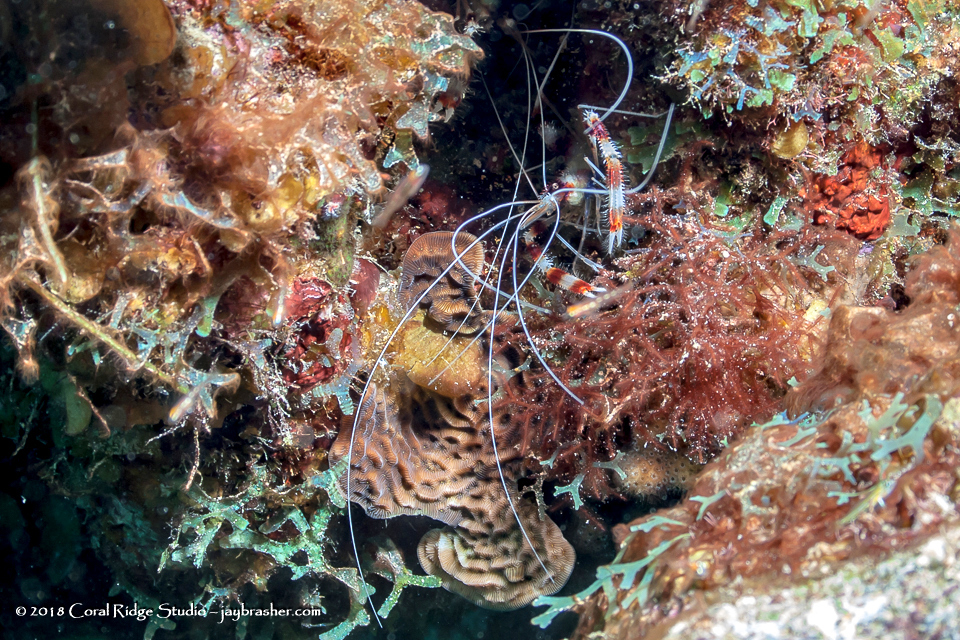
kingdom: Animalia
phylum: Arthropoda
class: Malacostraca
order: Decapoda
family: Stenopodidae
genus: Stenopus
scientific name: Stenopus hispidus
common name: Banded coral shrimp
